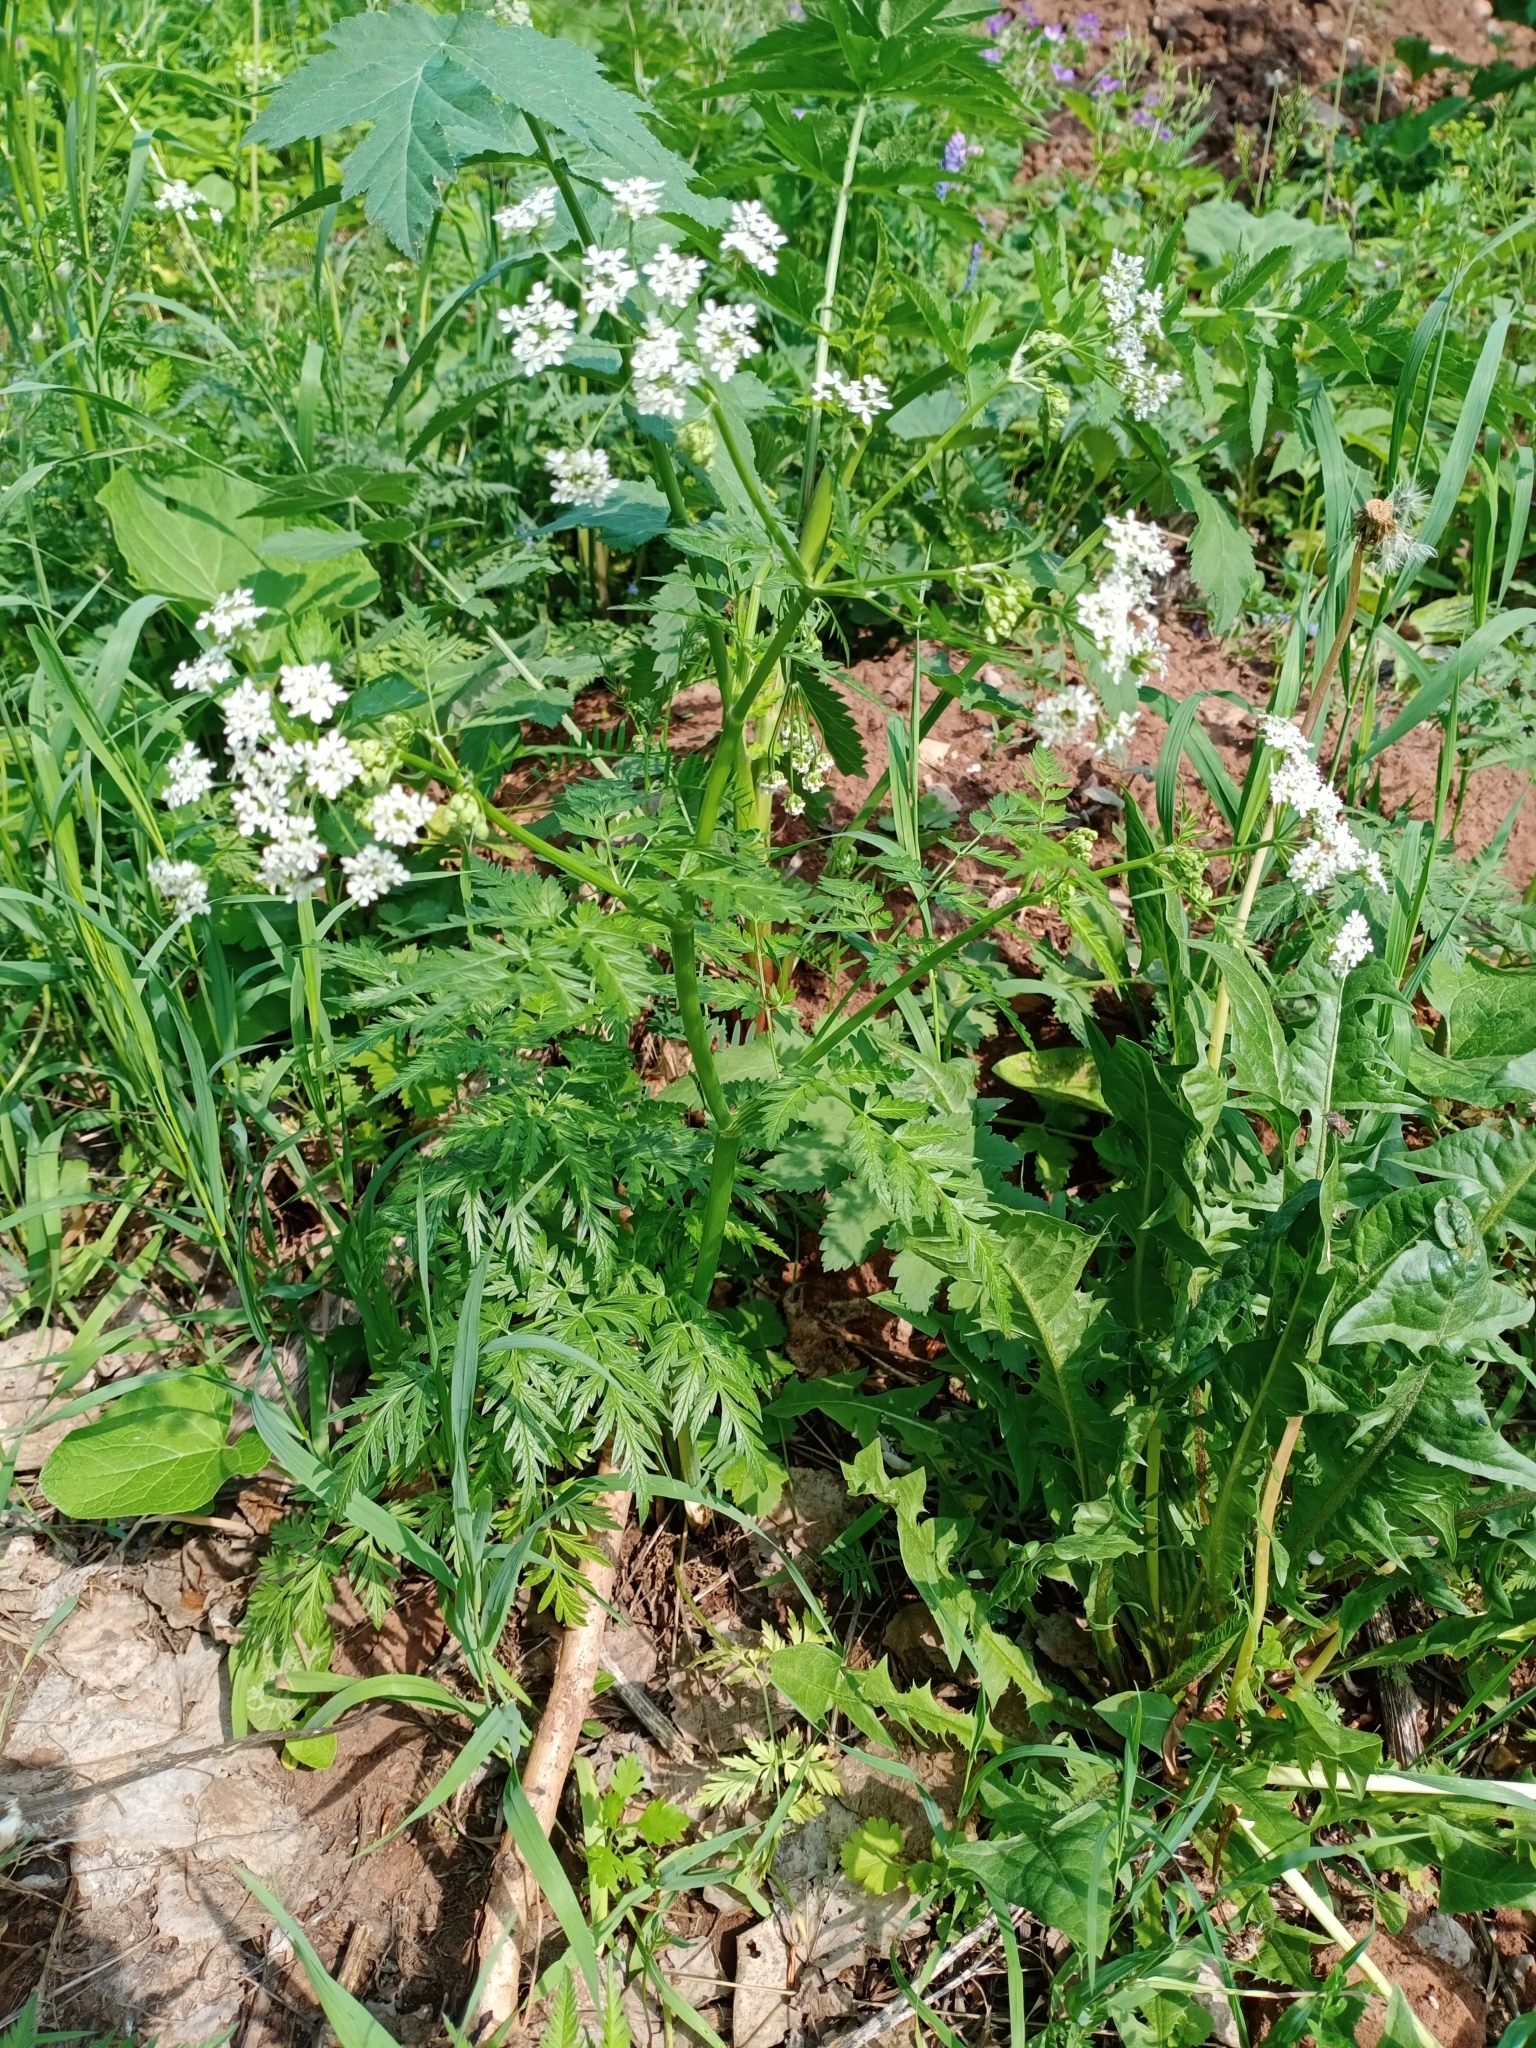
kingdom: Plantae
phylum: Tracheophyta
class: Magnoliopsida
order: Apiales
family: Apiaceae
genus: Anthriscus
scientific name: Anthriscus sylvestris
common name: Cow parsley
